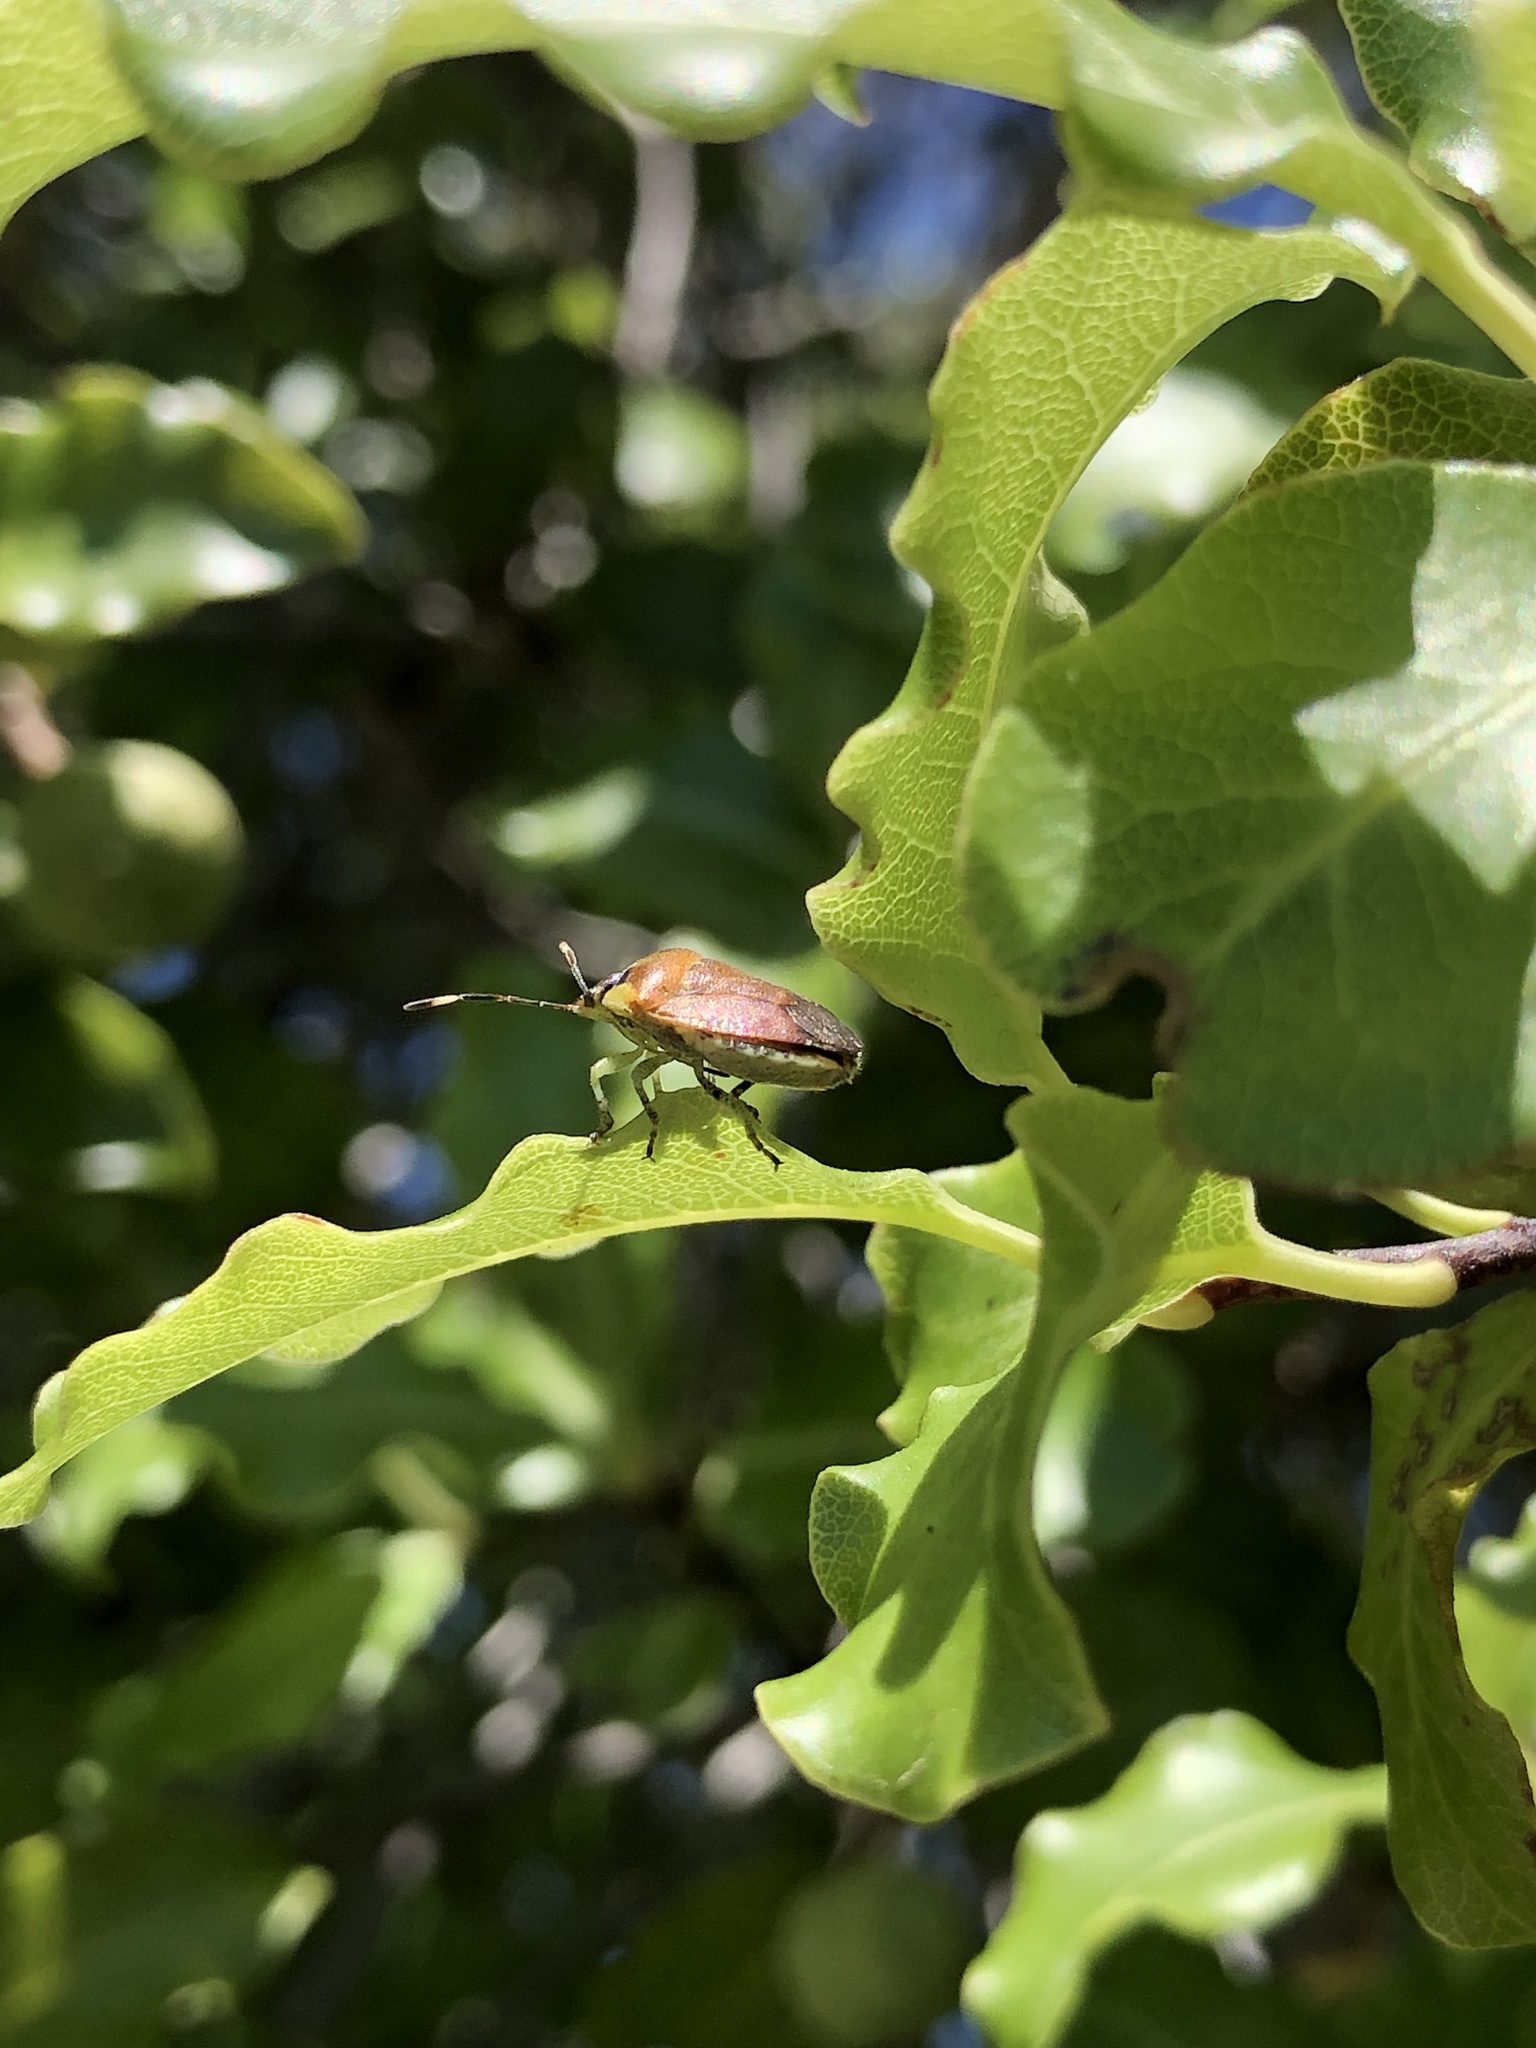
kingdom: Animalia
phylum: Arthropoda
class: Insecta
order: Hemiptera
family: Pentatomidae
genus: Monteithiella
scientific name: Monteithiella
